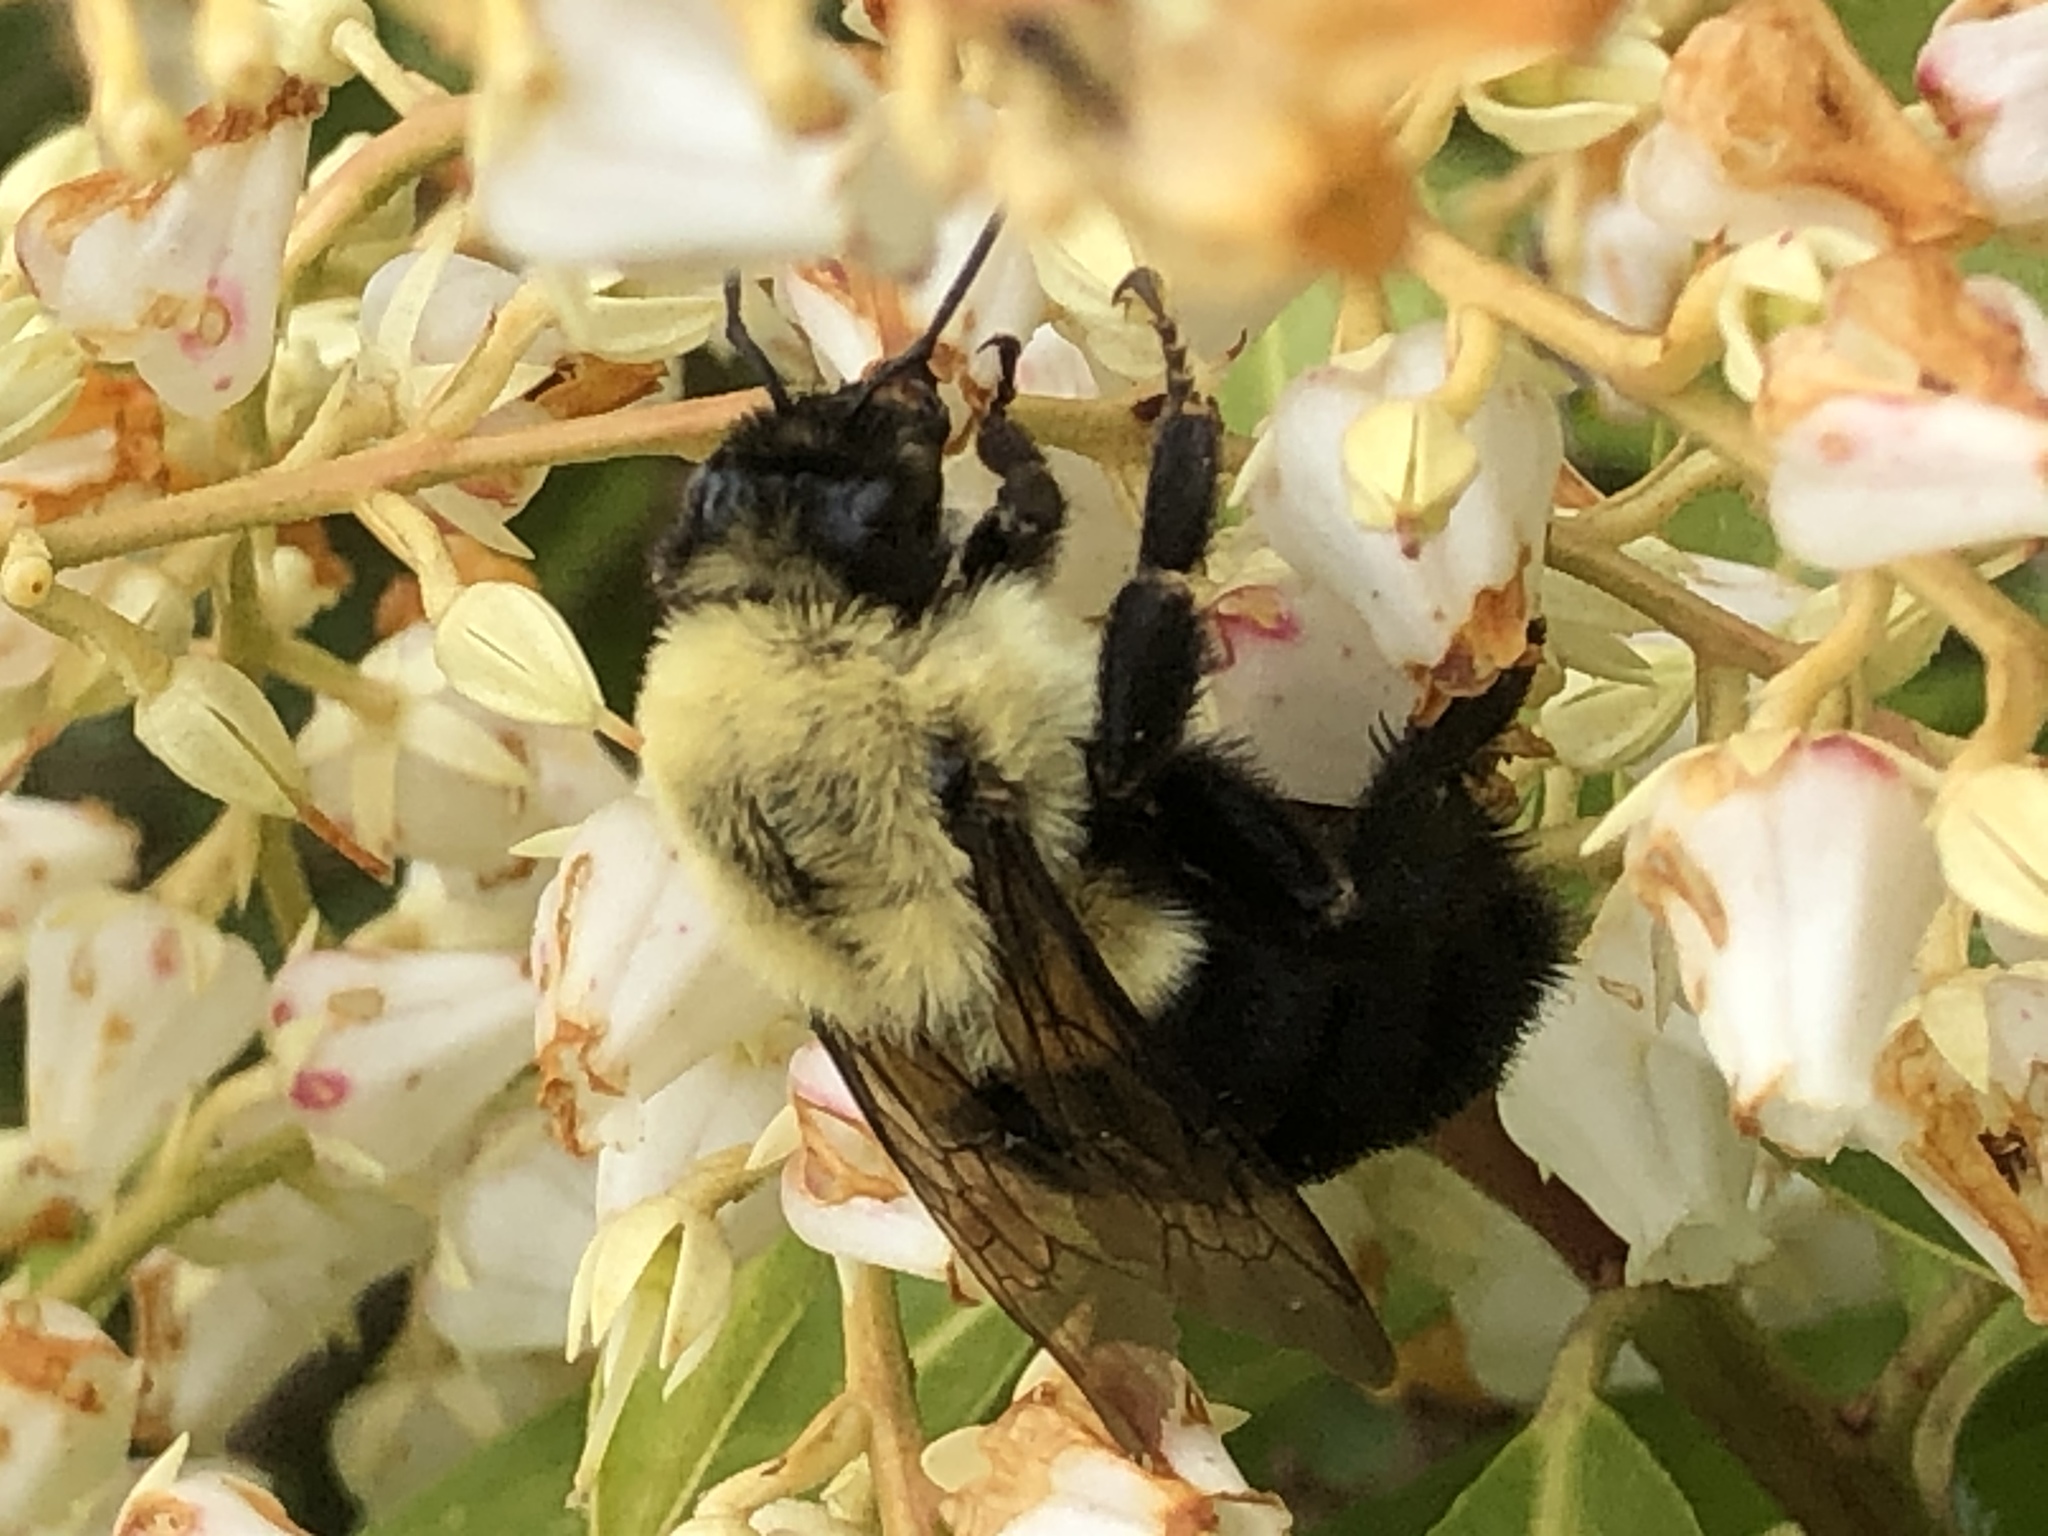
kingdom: Animalia
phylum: Arthropoda
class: Insecta
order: Hymenoptera
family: Apidae
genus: Bombus
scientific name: Bombus impatiens
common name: Common eastern bumble bee
